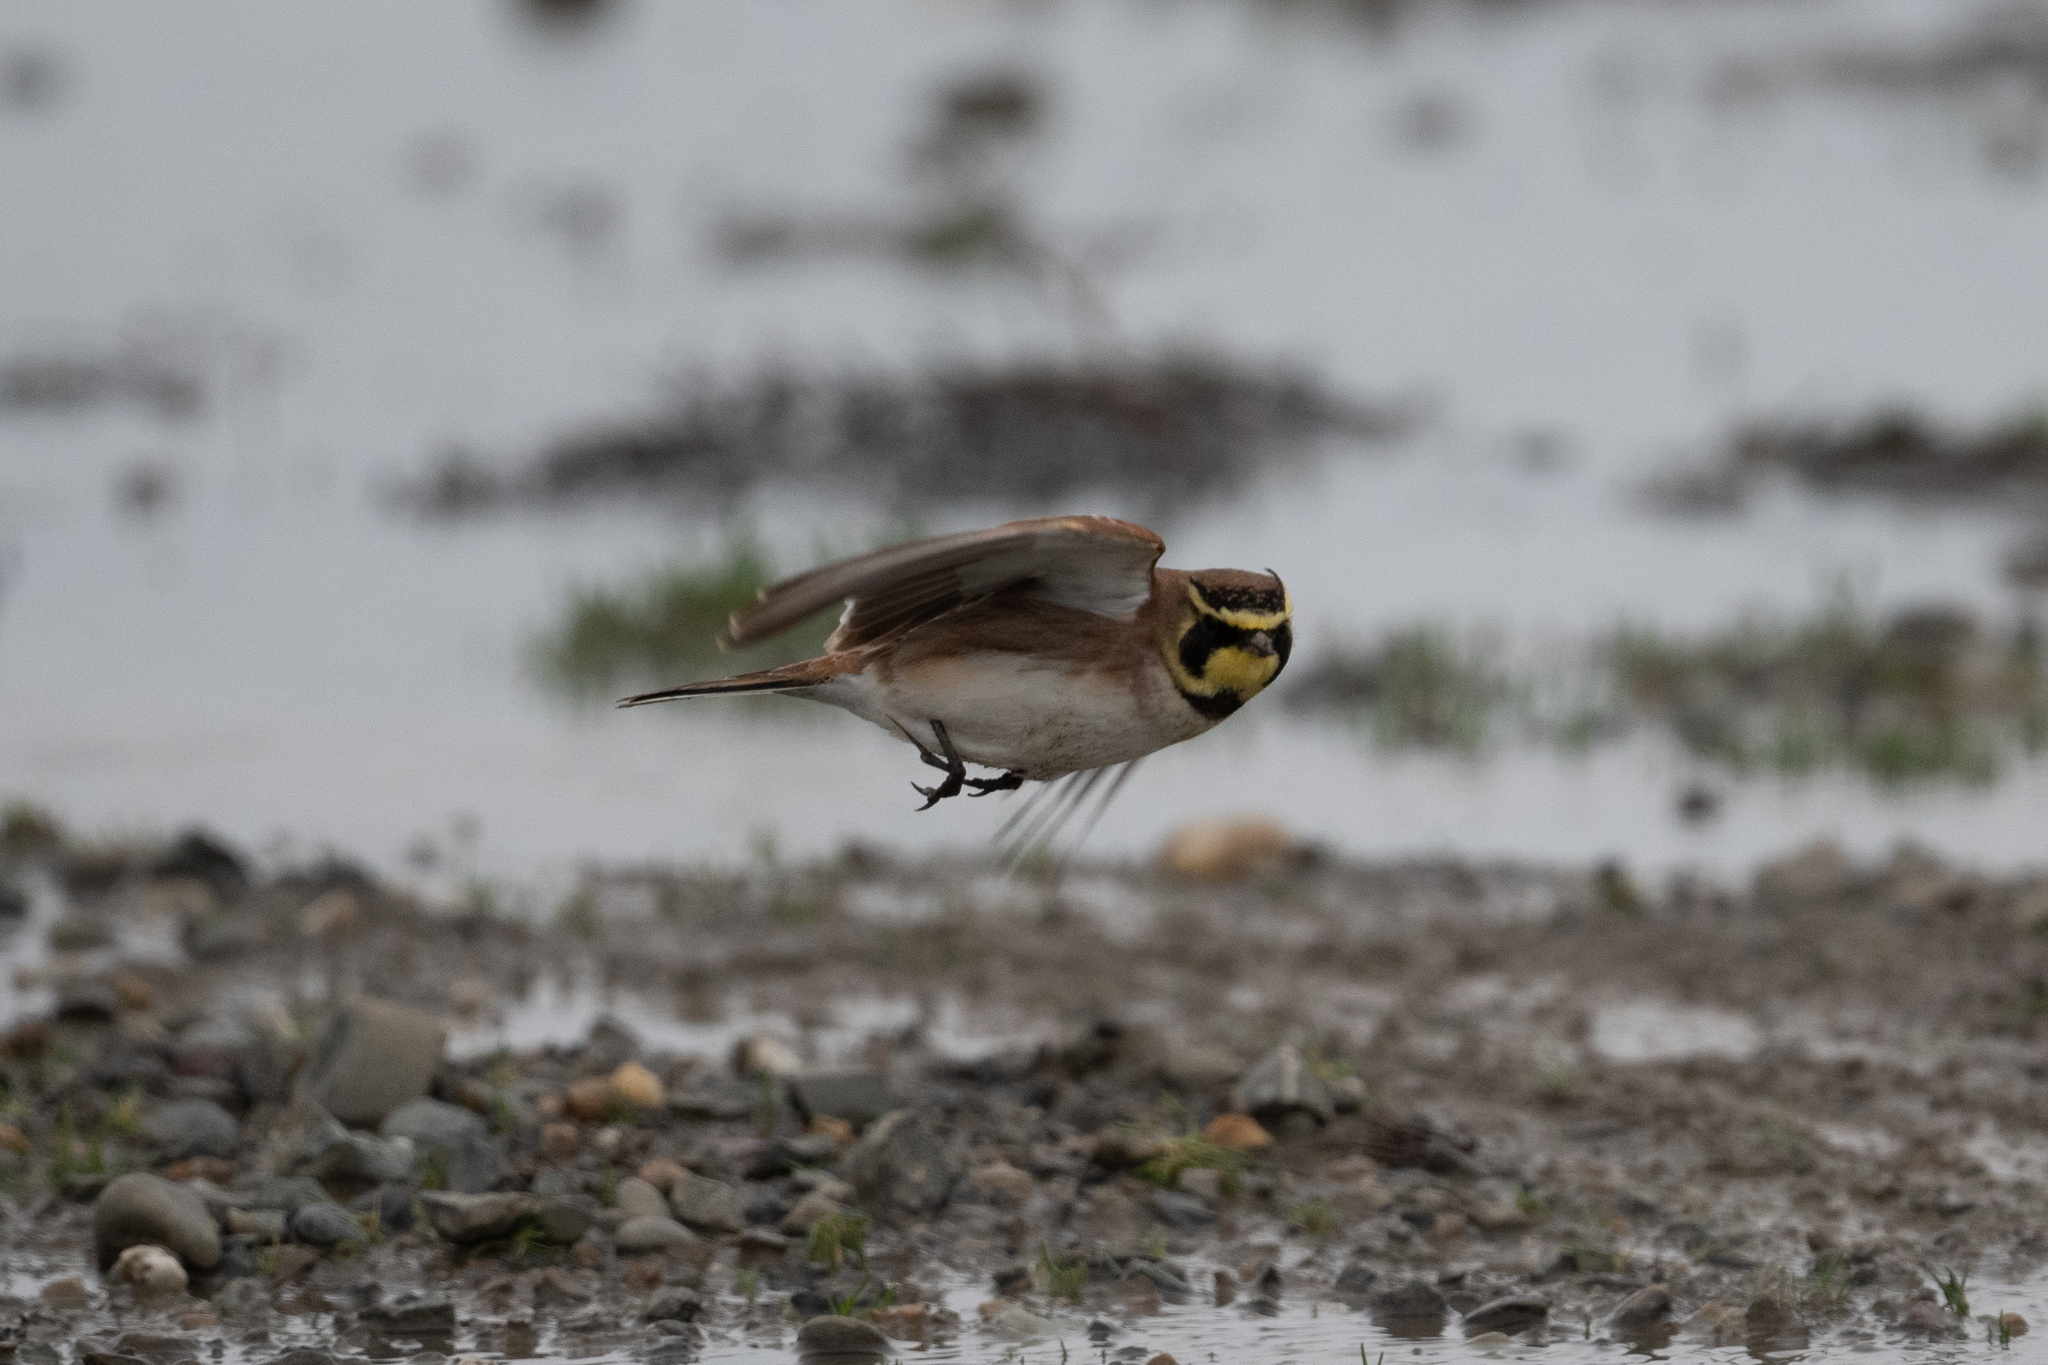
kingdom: Animalia
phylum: Chordata
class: Aves
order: Passeriformes
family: Alaudidae
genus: Eremophila
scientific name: Eremophila alpestris
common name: Horned lark
